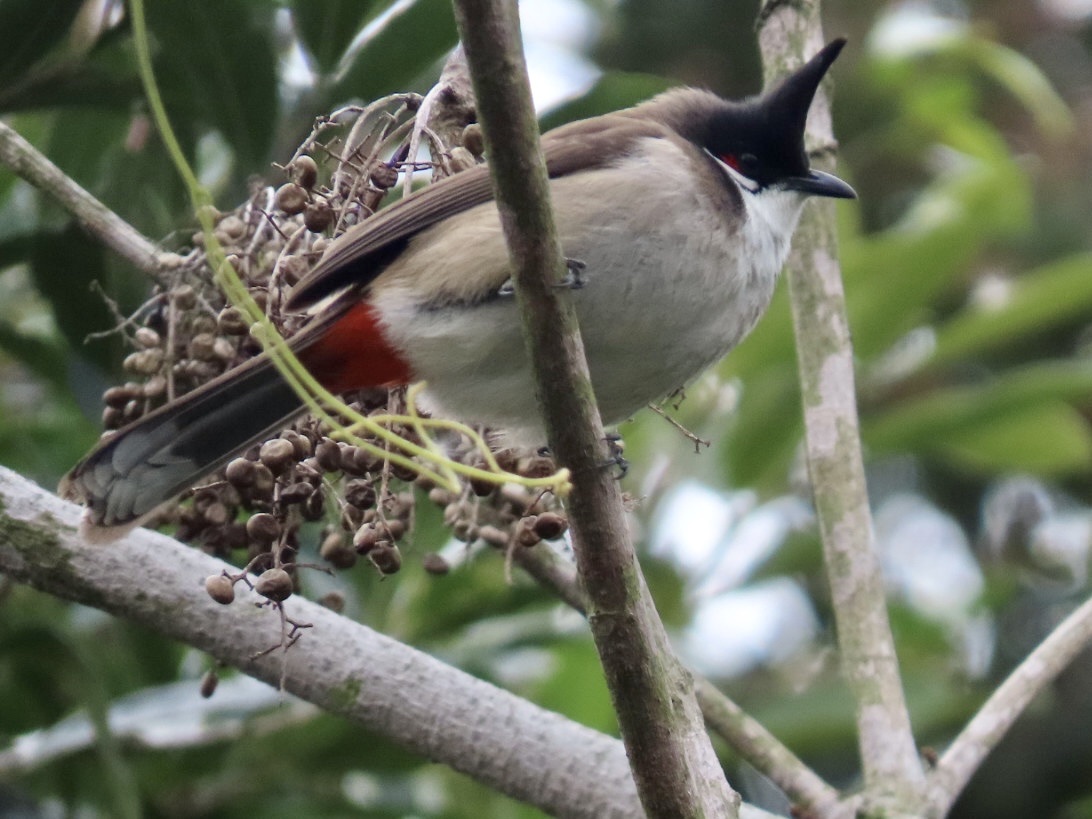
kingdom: Animalia
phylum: Chordata
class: Aves
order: Passeriformes
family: Pycnonotidae
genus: Pycnonotus
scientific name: Pycnonotus jocosus
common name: Red-whiskered bulbul
